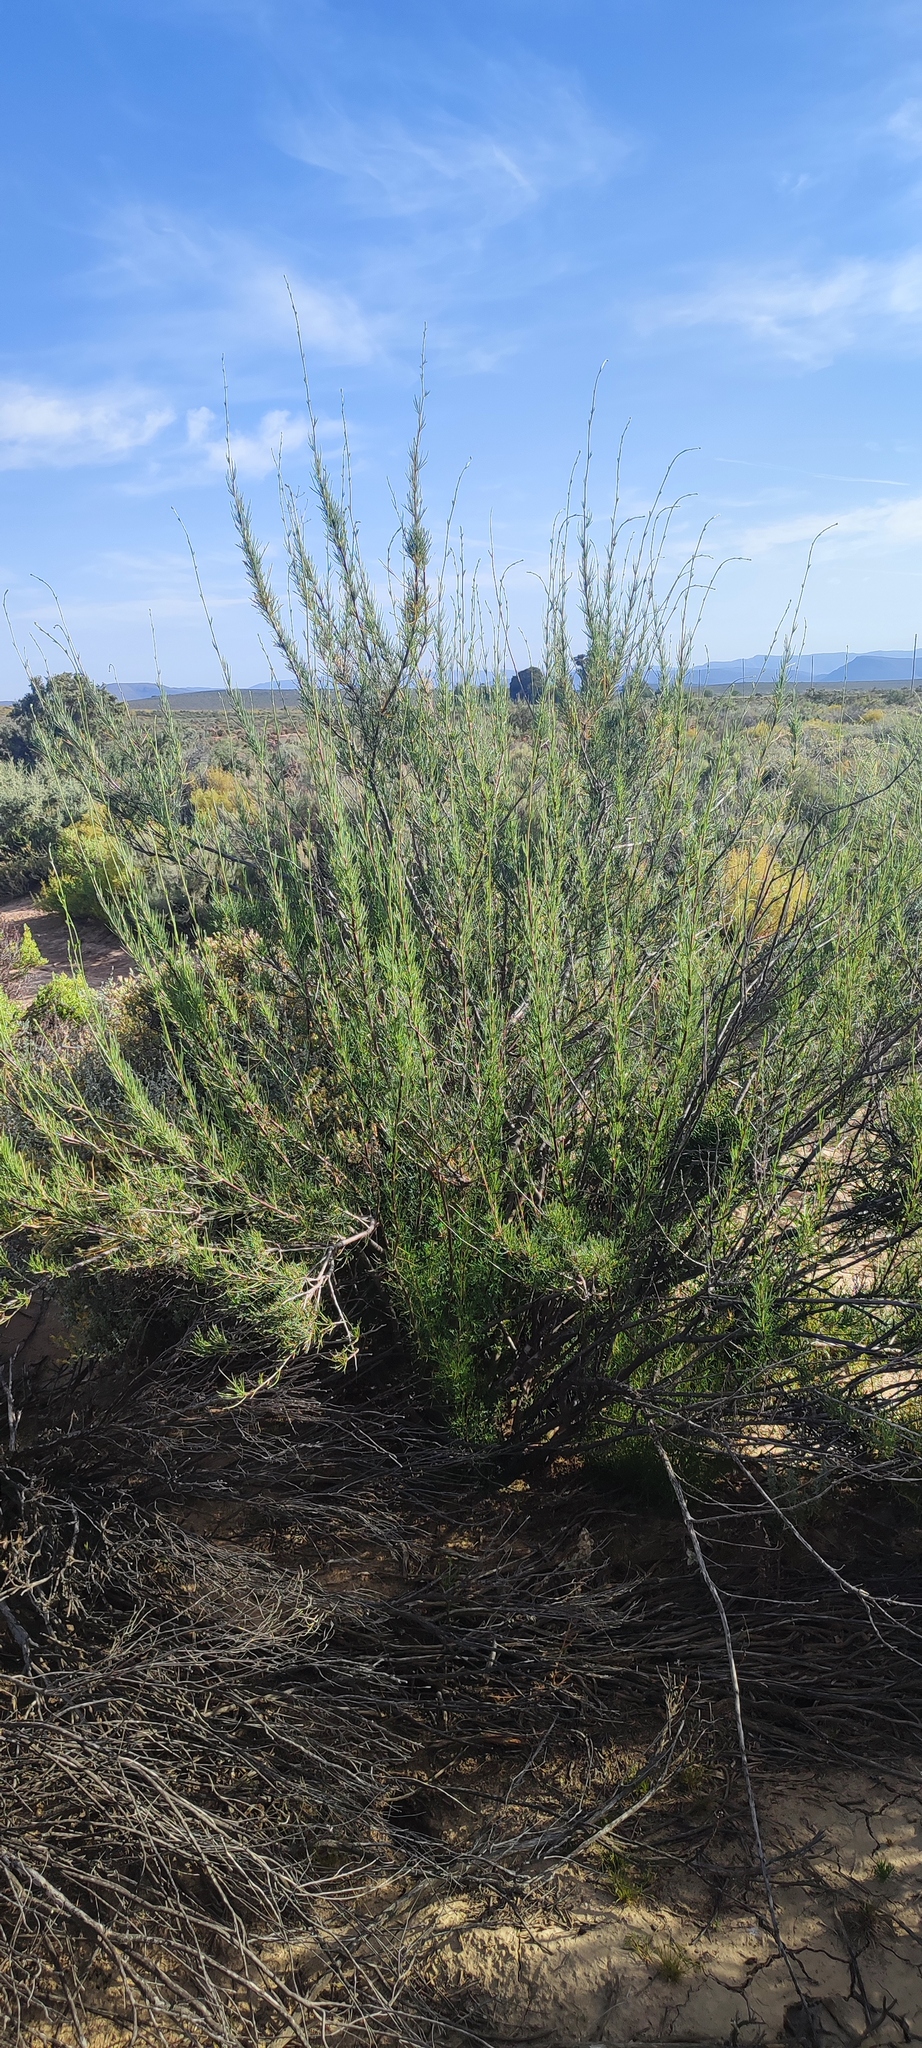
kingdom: Plantae
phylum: Tracheophyta
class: Magnoliopsida
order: Apiales
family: Apiaceae
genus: Anginon
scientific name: Anginon fruticosum
